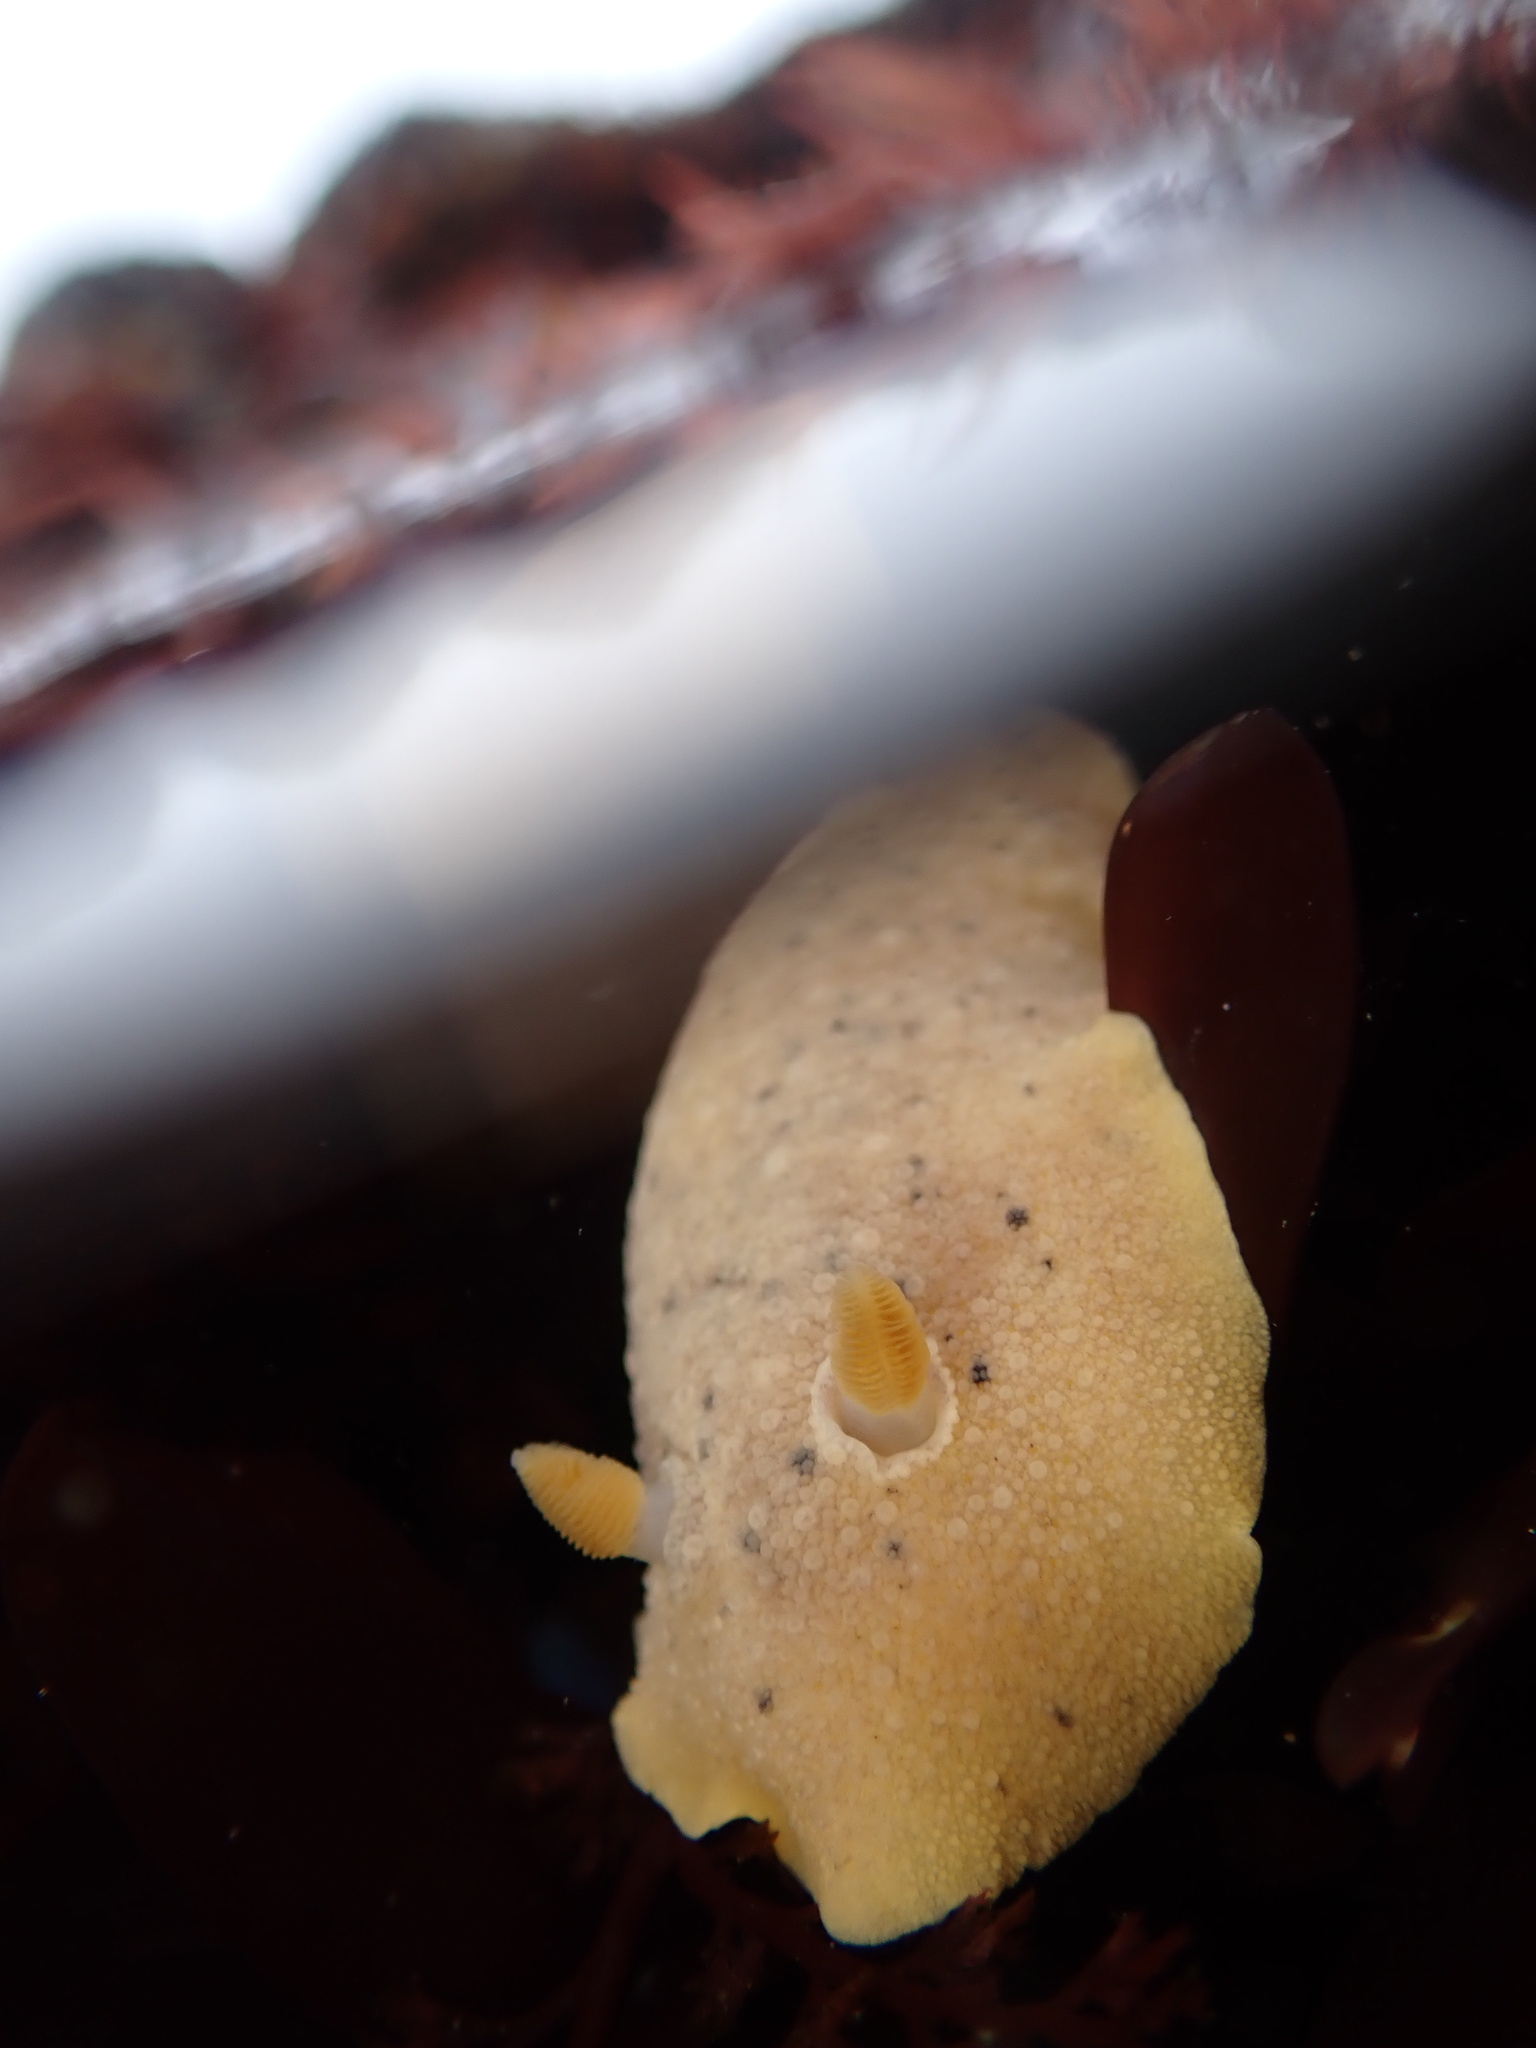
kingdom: Animalia
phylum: Mollusca
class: Gastropoda
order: Nudibranchia
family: Discodorididae
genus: Geitodoris
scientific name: Geitodoris heathi
